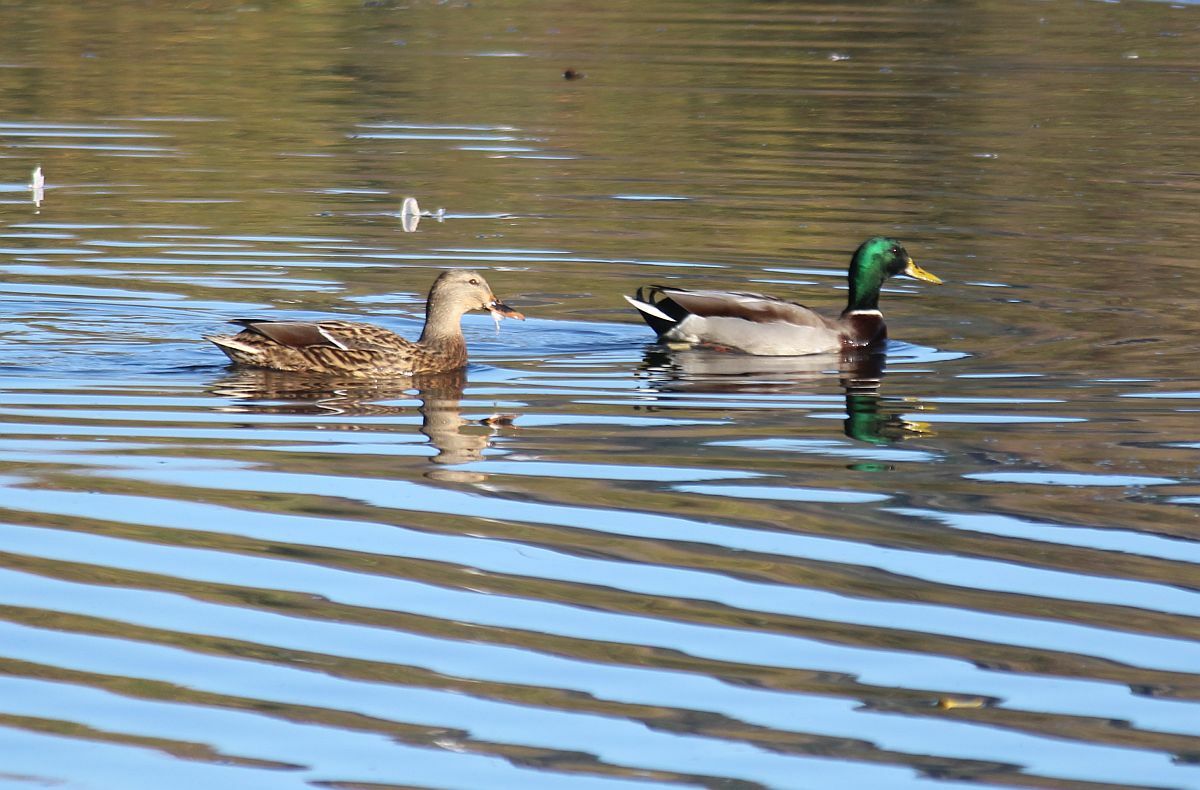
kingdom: Animalia
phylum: Chordata
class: Aves
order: Anseriformes
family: Anatidae
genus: Anas
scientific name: Anas platyrhynchos
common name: Mallard
